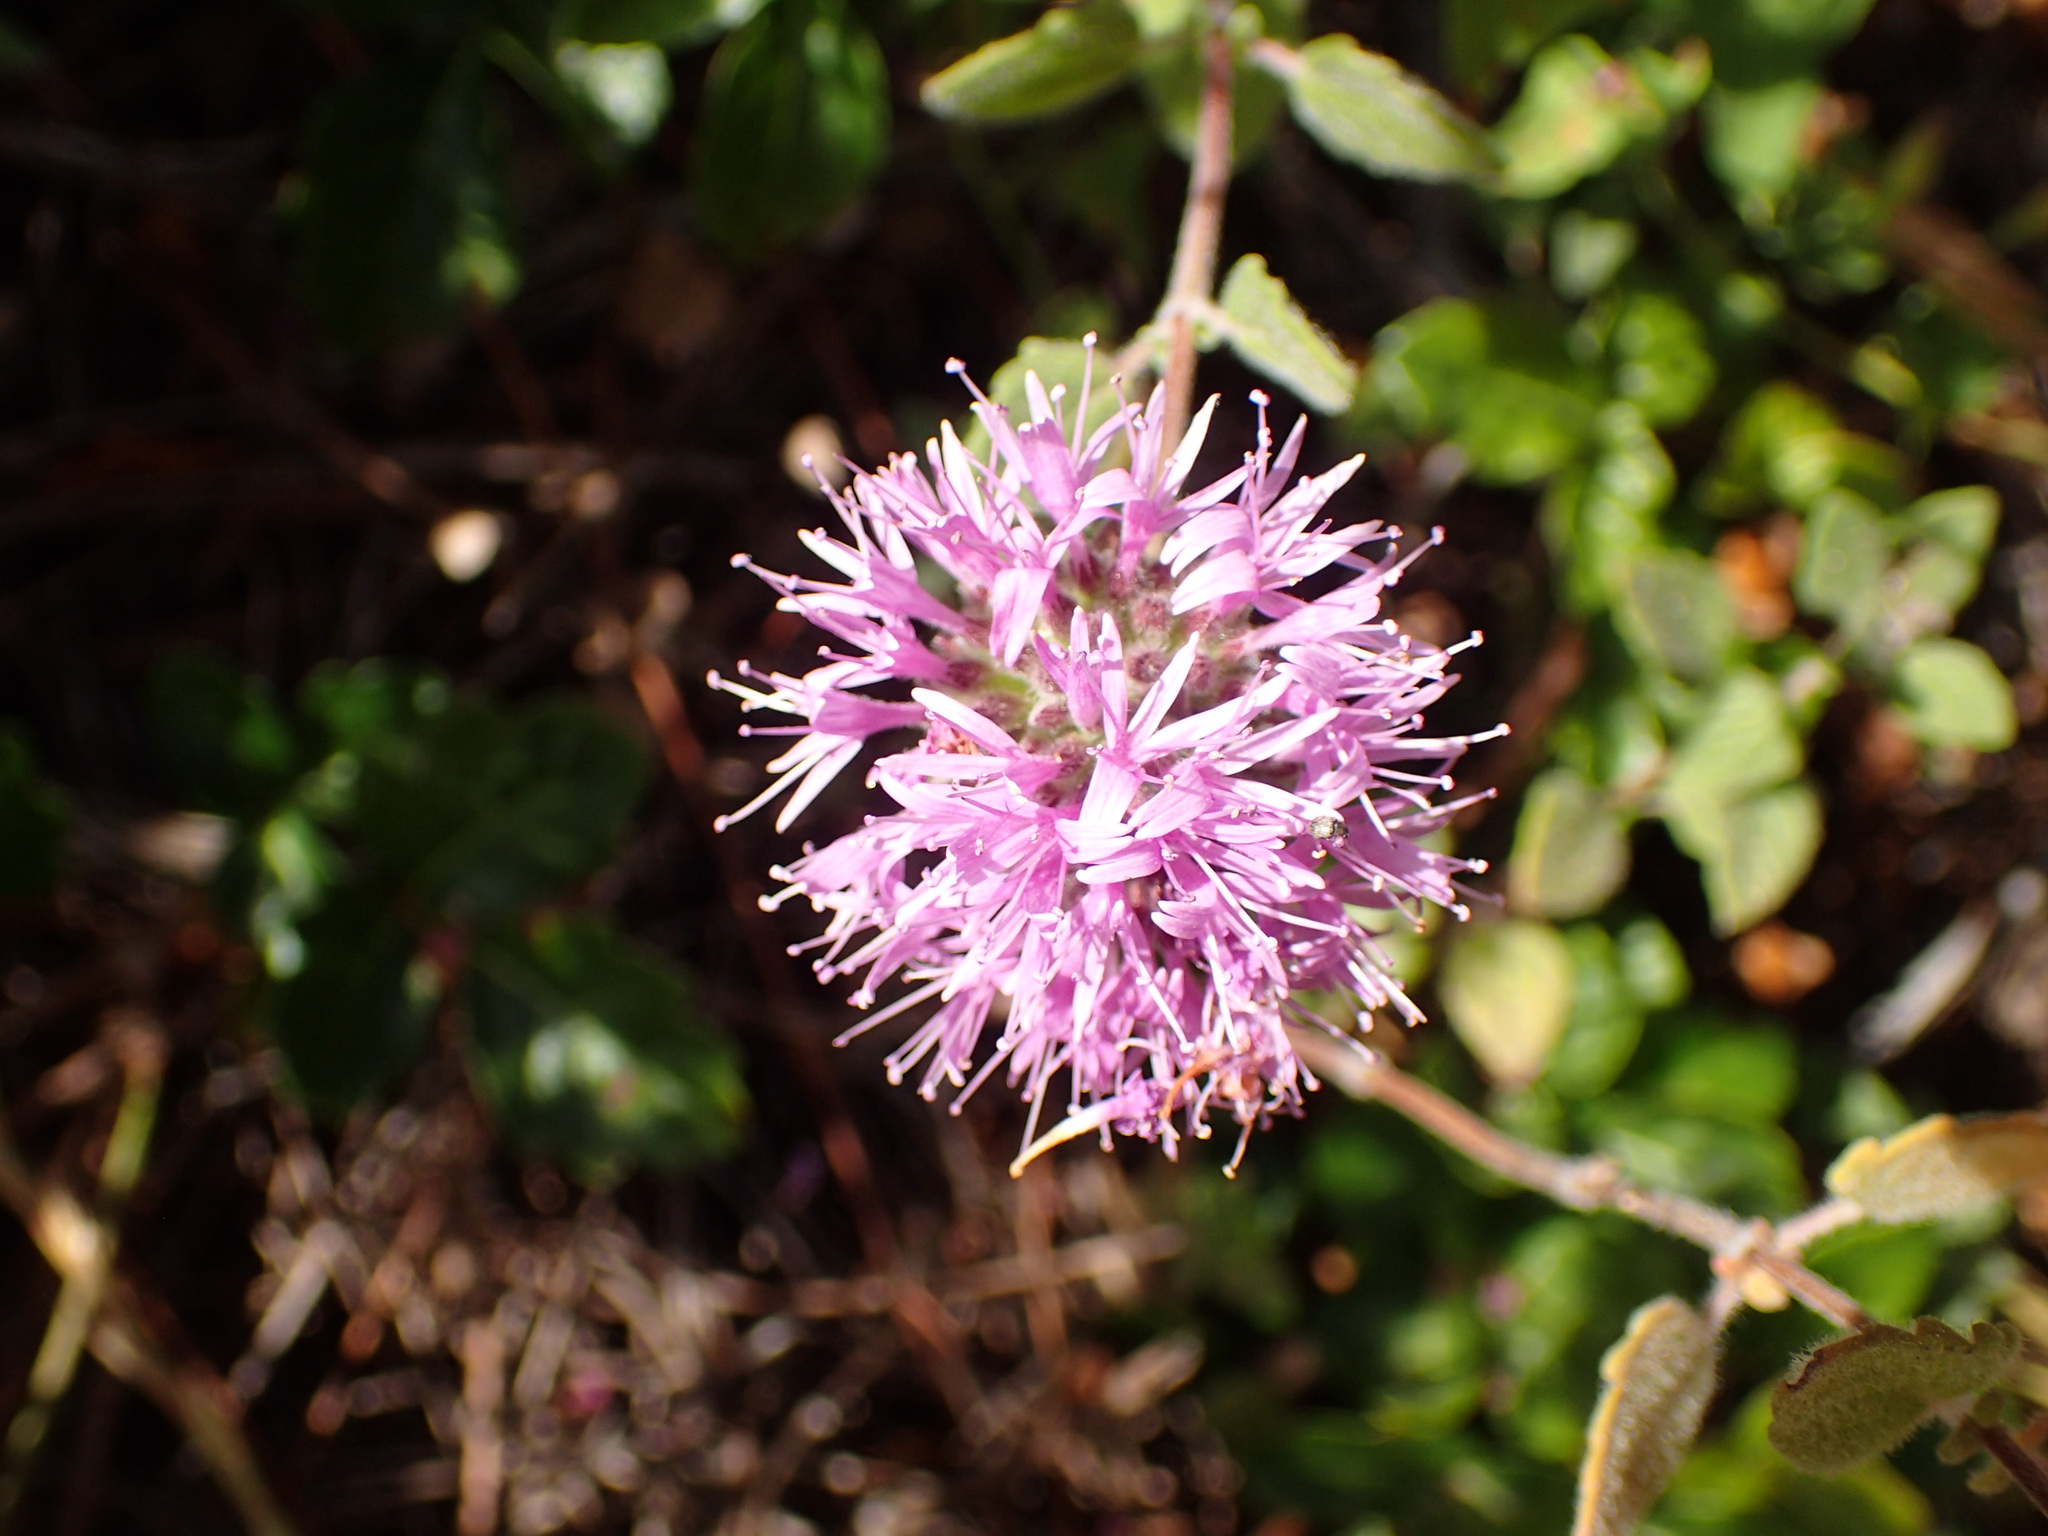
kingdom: Plantae
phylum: Tracheophyta
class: Magnoliopsida
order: Lamiales
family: Lamiaceae
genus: Monardella
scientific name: Monardella odoratissima
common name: Pacific monardella
